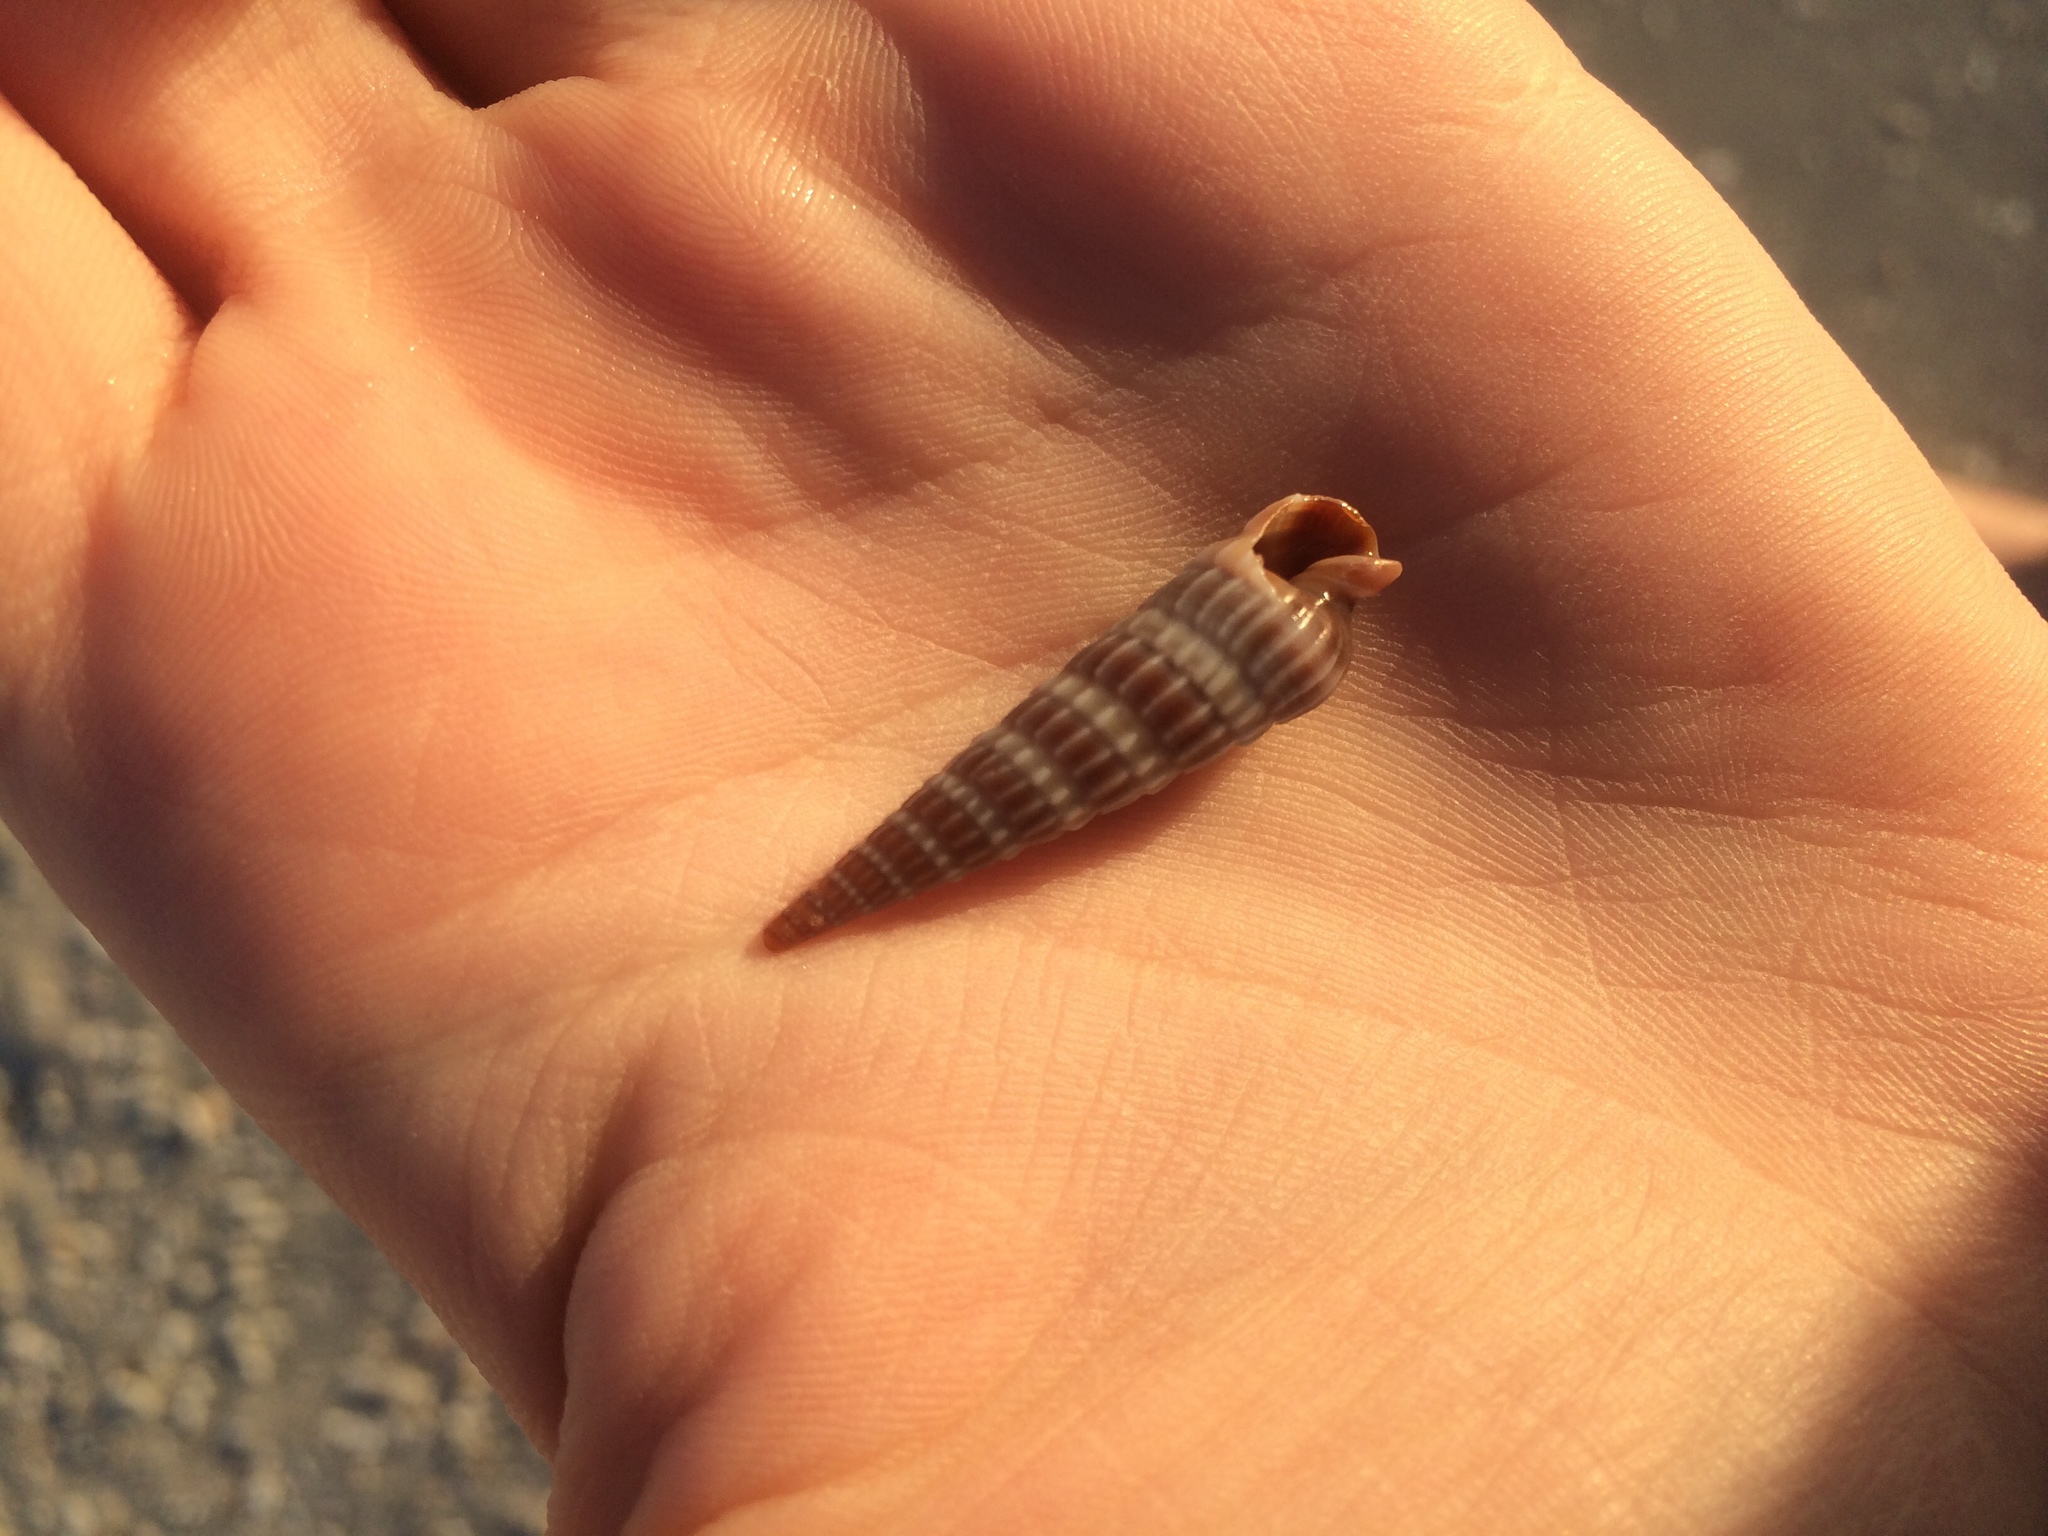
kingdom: Animalia
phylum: Mollusca
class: Gastropoda
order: Neogastropoda
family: Terebridae
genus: Neoterebra
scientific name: Neoterebra dislocata
